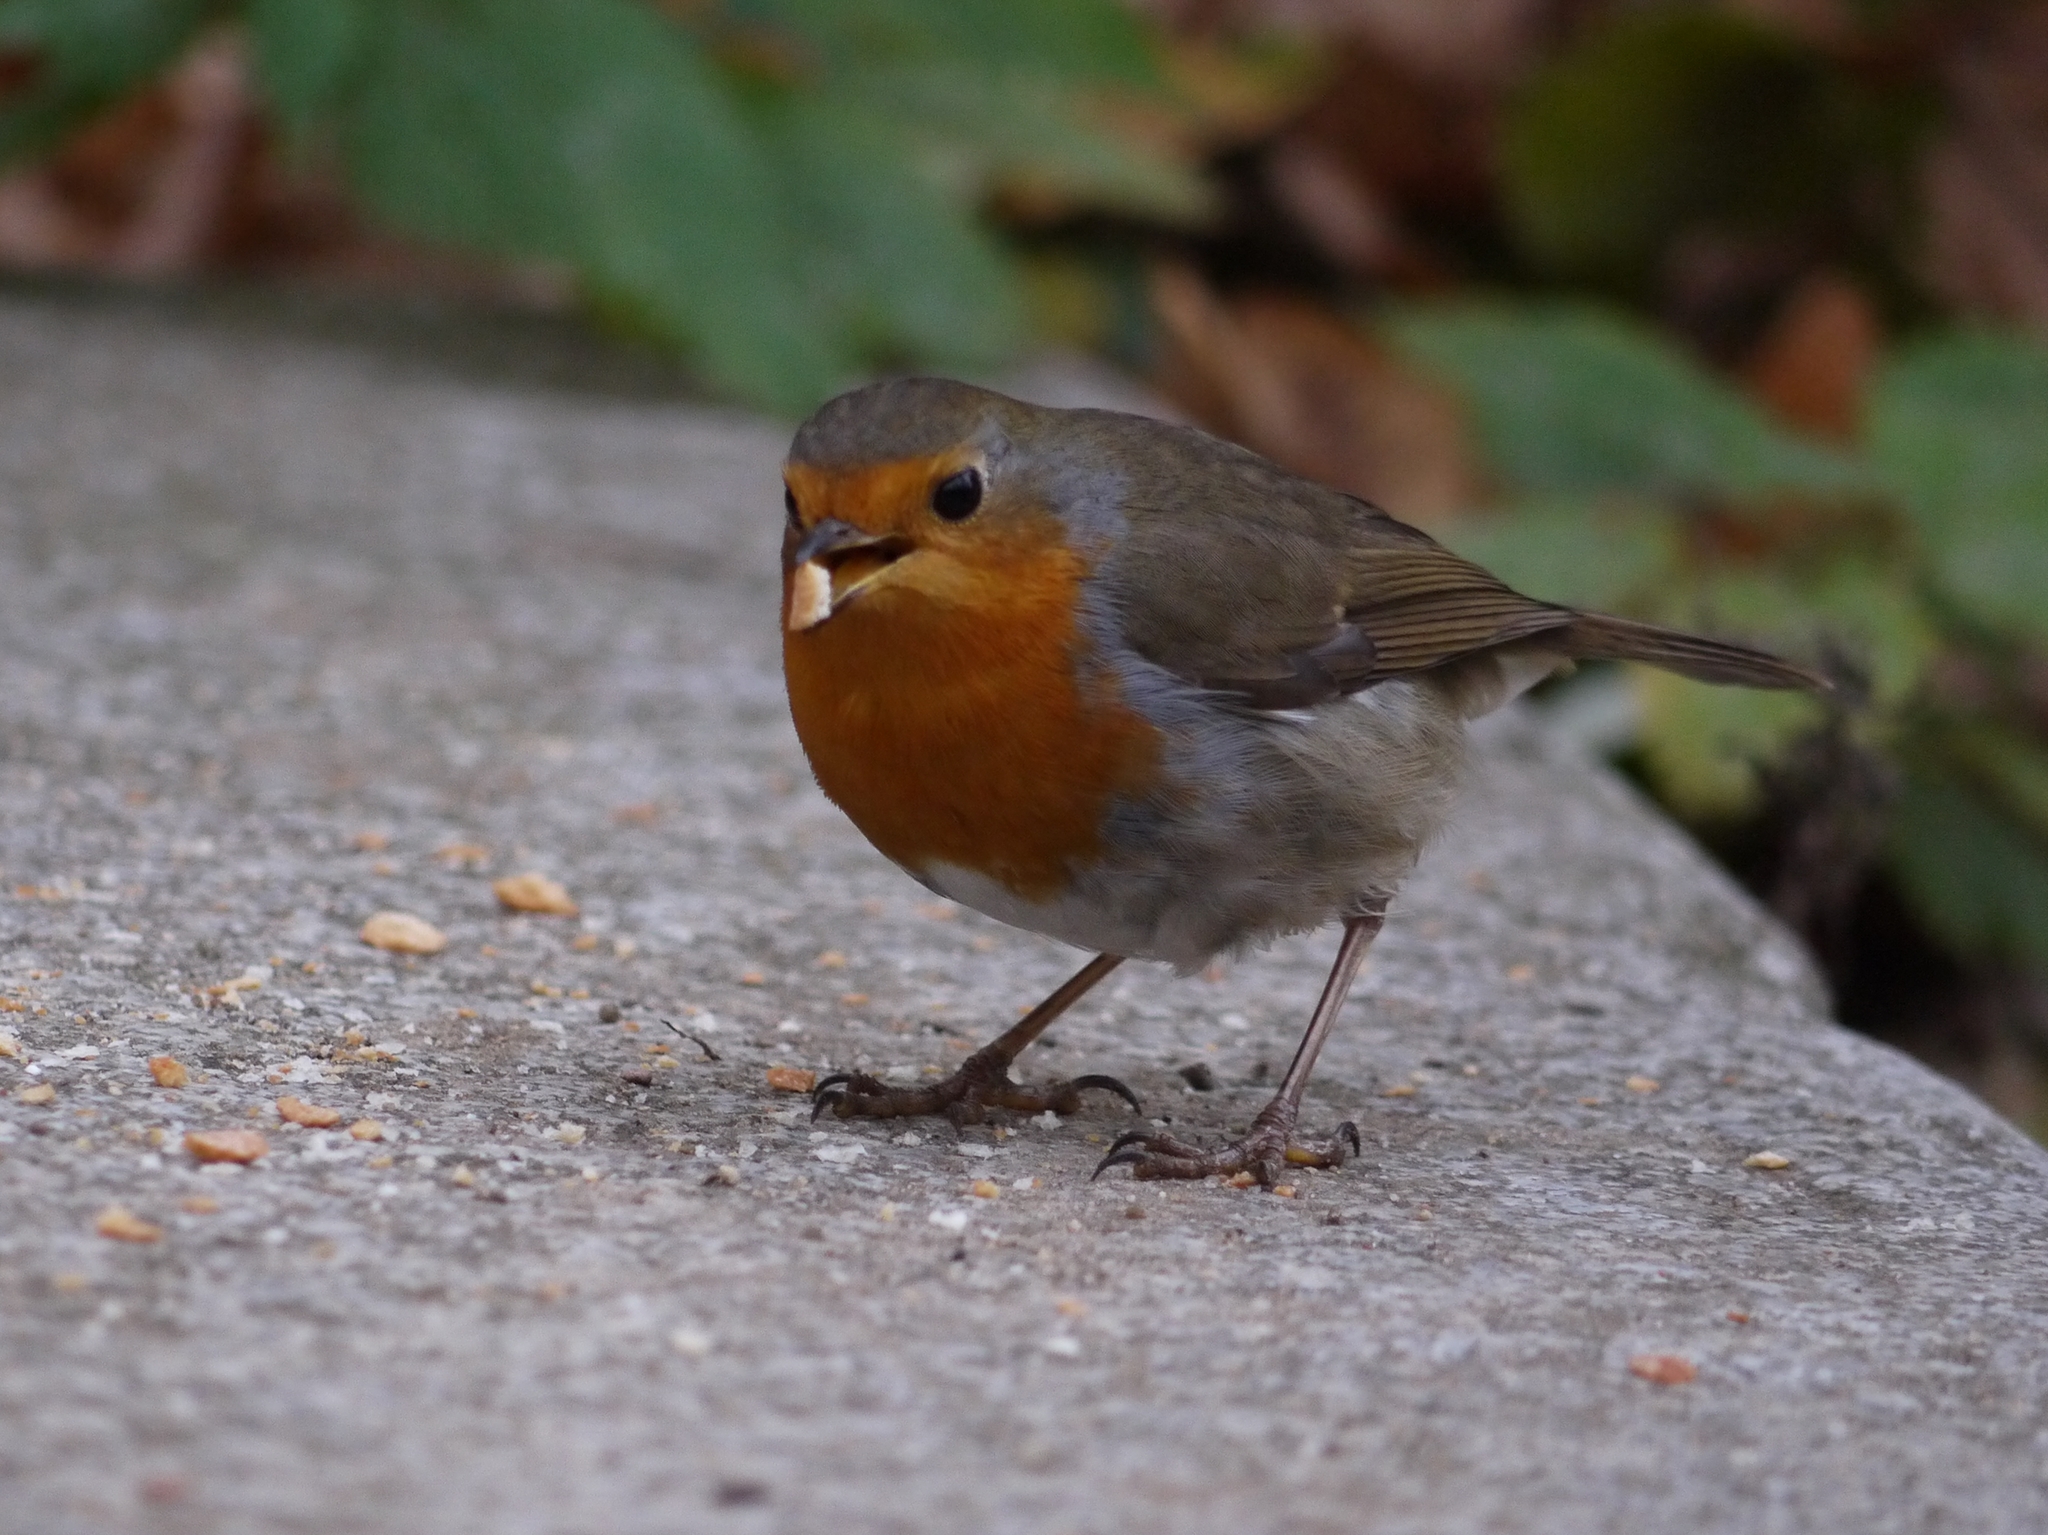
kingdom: Animalia
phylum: Chordata
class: Aves
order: Passeriformes
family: Muscicapidae
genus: Erithacus
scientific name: Erithacus rubecula
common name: European robin
